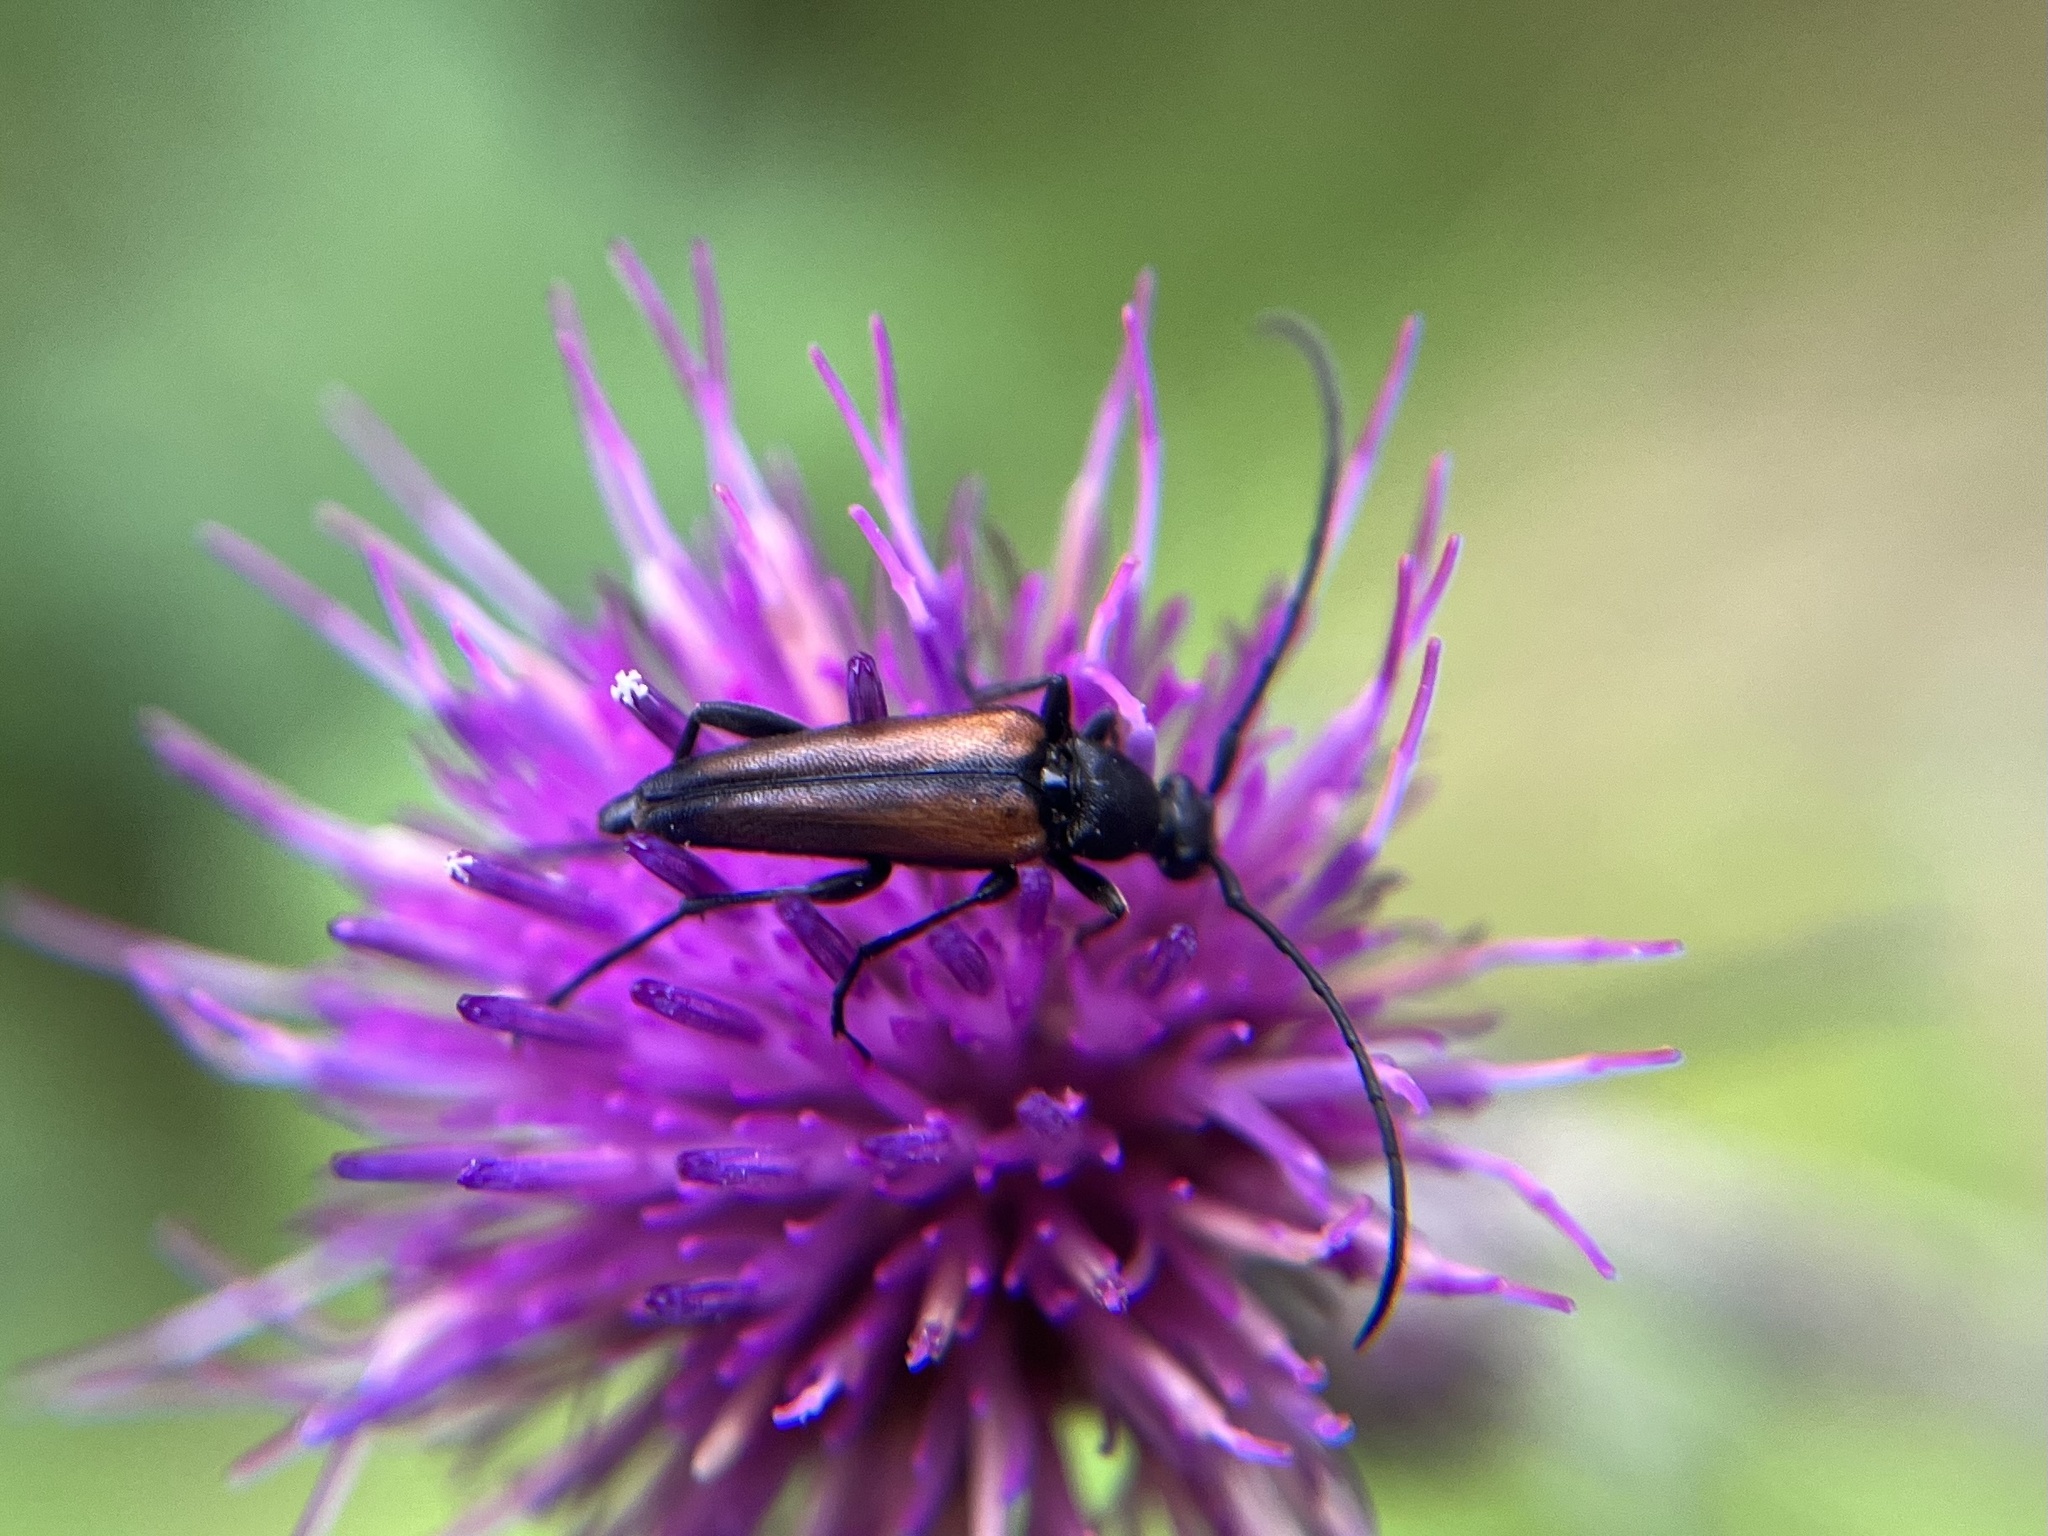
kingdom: Animalia
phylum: Arthropoda
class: Insecta
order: Coleoptera
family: Cerambycidae
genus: Stenurella
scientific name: Stenurella melanura
